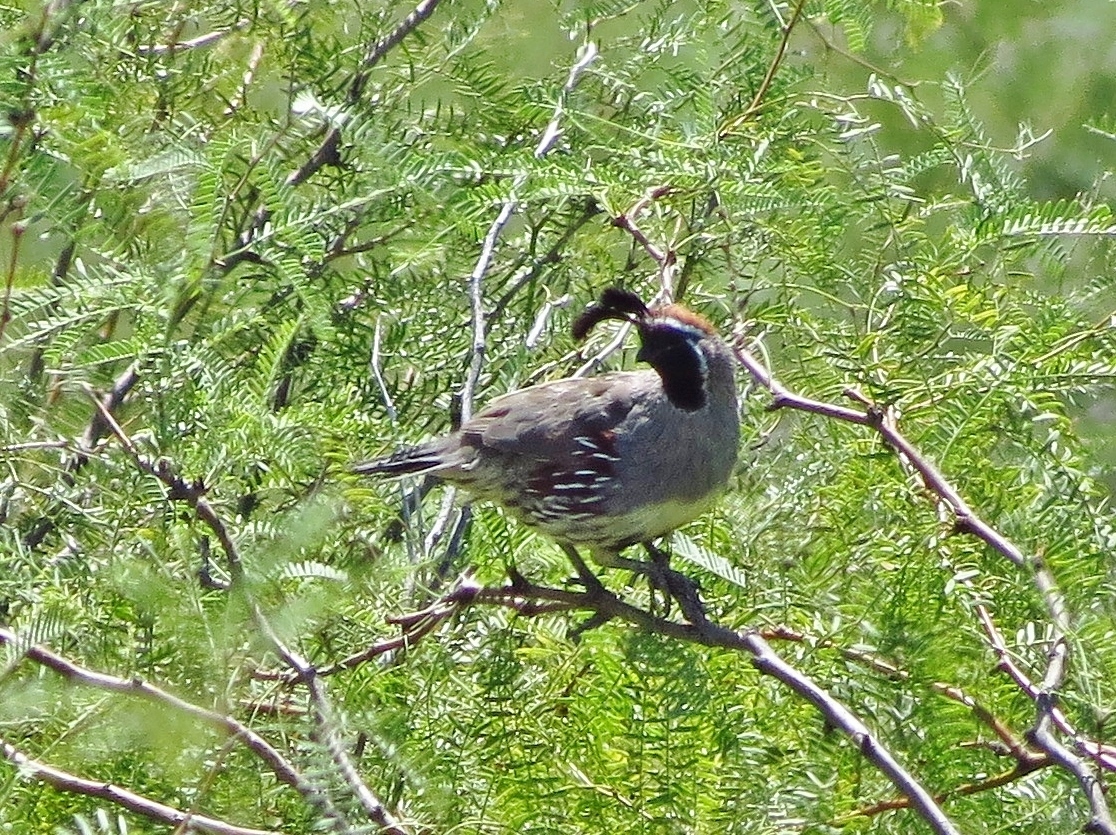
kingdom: Animalia
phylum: Chordata
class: Aves
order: Galliformes
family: Odontophoridae
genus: Callipepla
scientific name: Callipepla gambelii
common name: Gambel's quail
